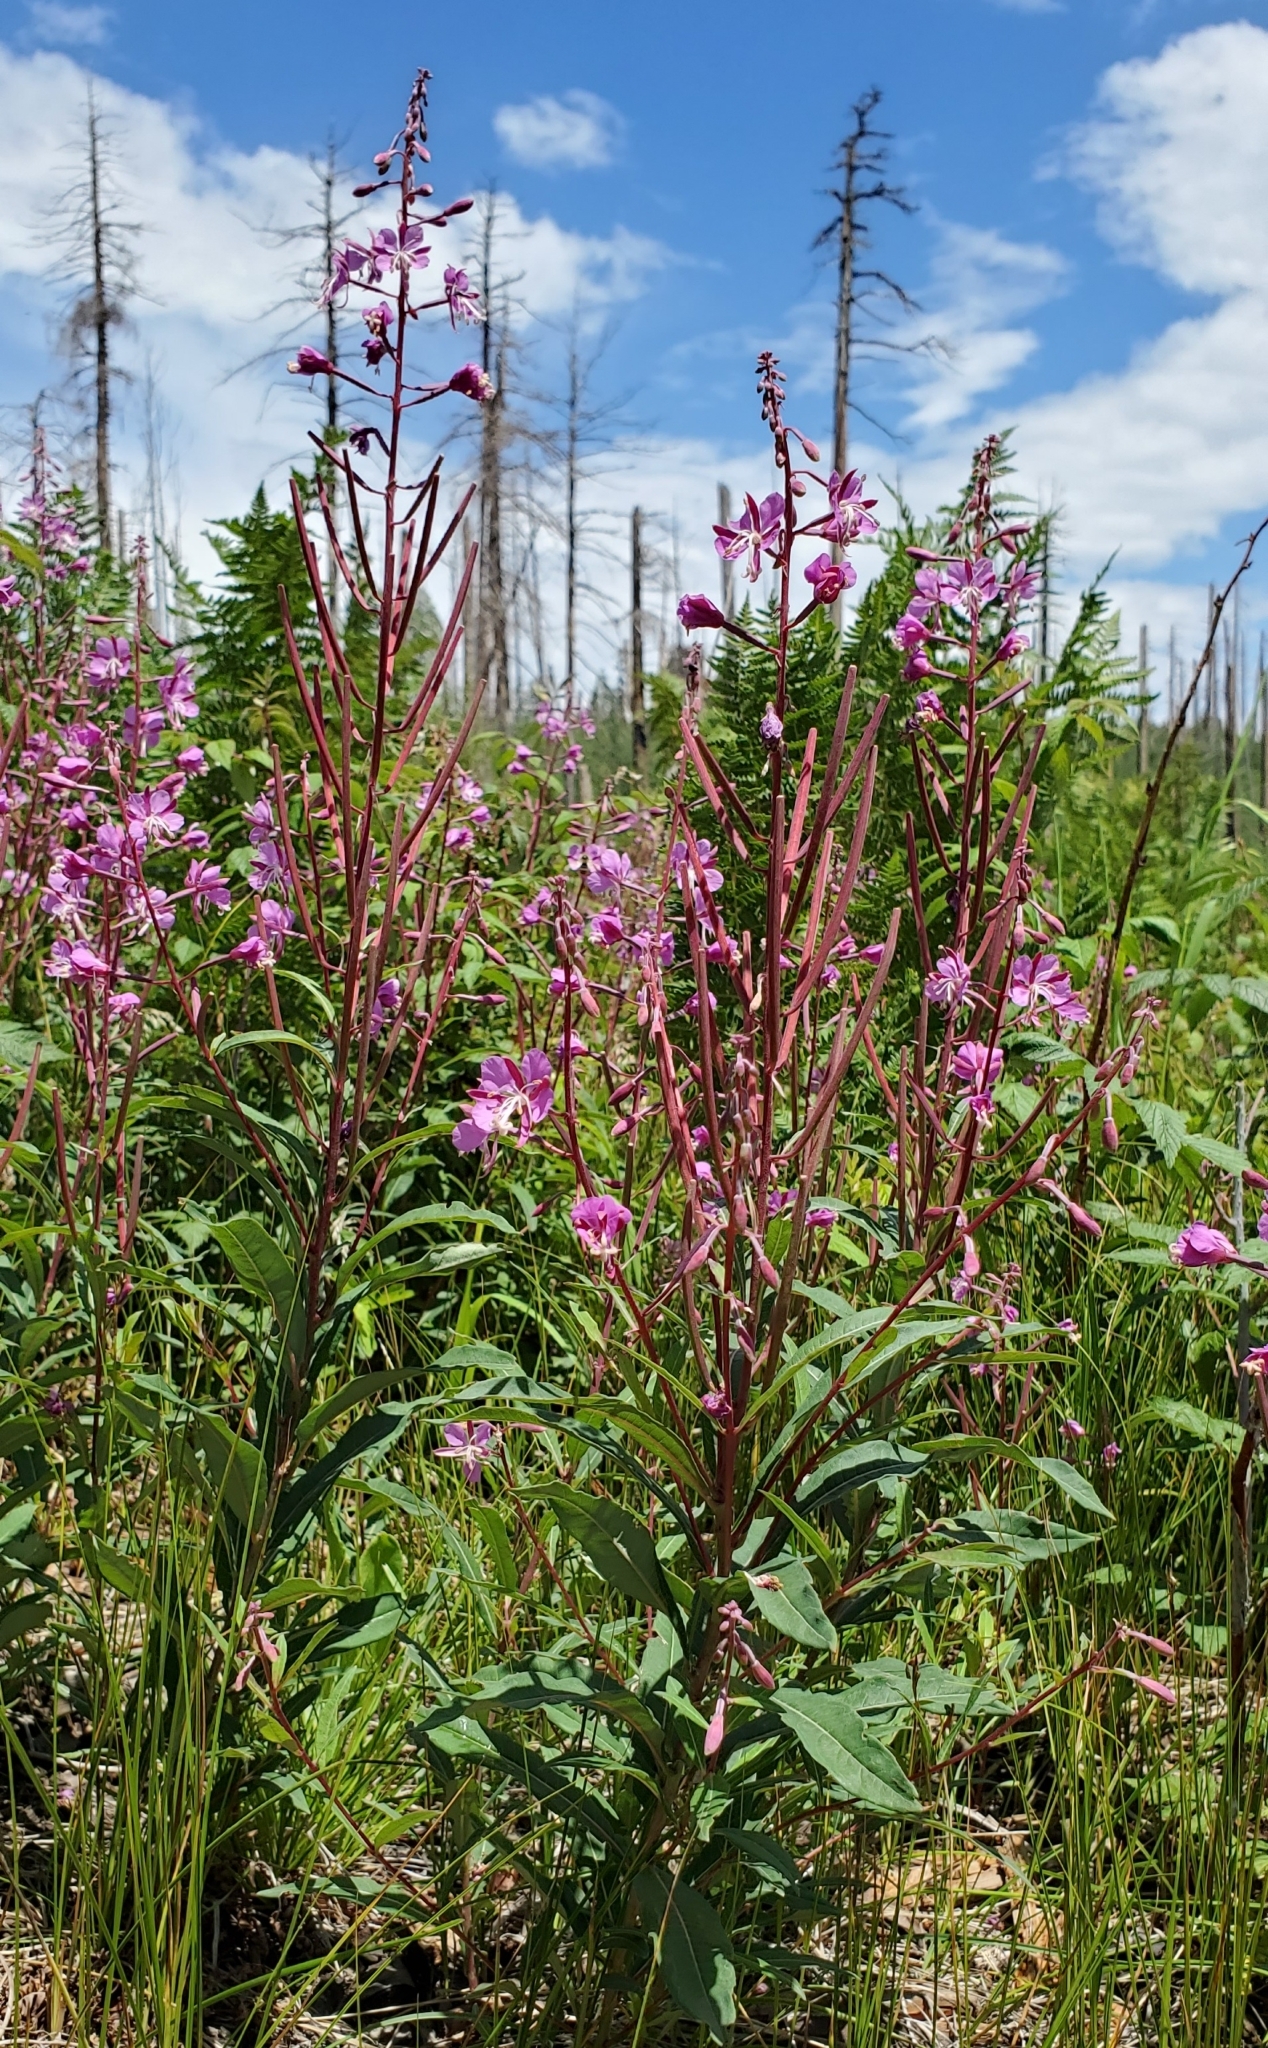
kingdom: Plantae
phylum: Tracheophyta
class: Magnoliopsida
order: Myrtales
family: Onagraceae
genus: Chamaenerion
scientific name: Chamaenerion angustifolium
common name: Fireweed
